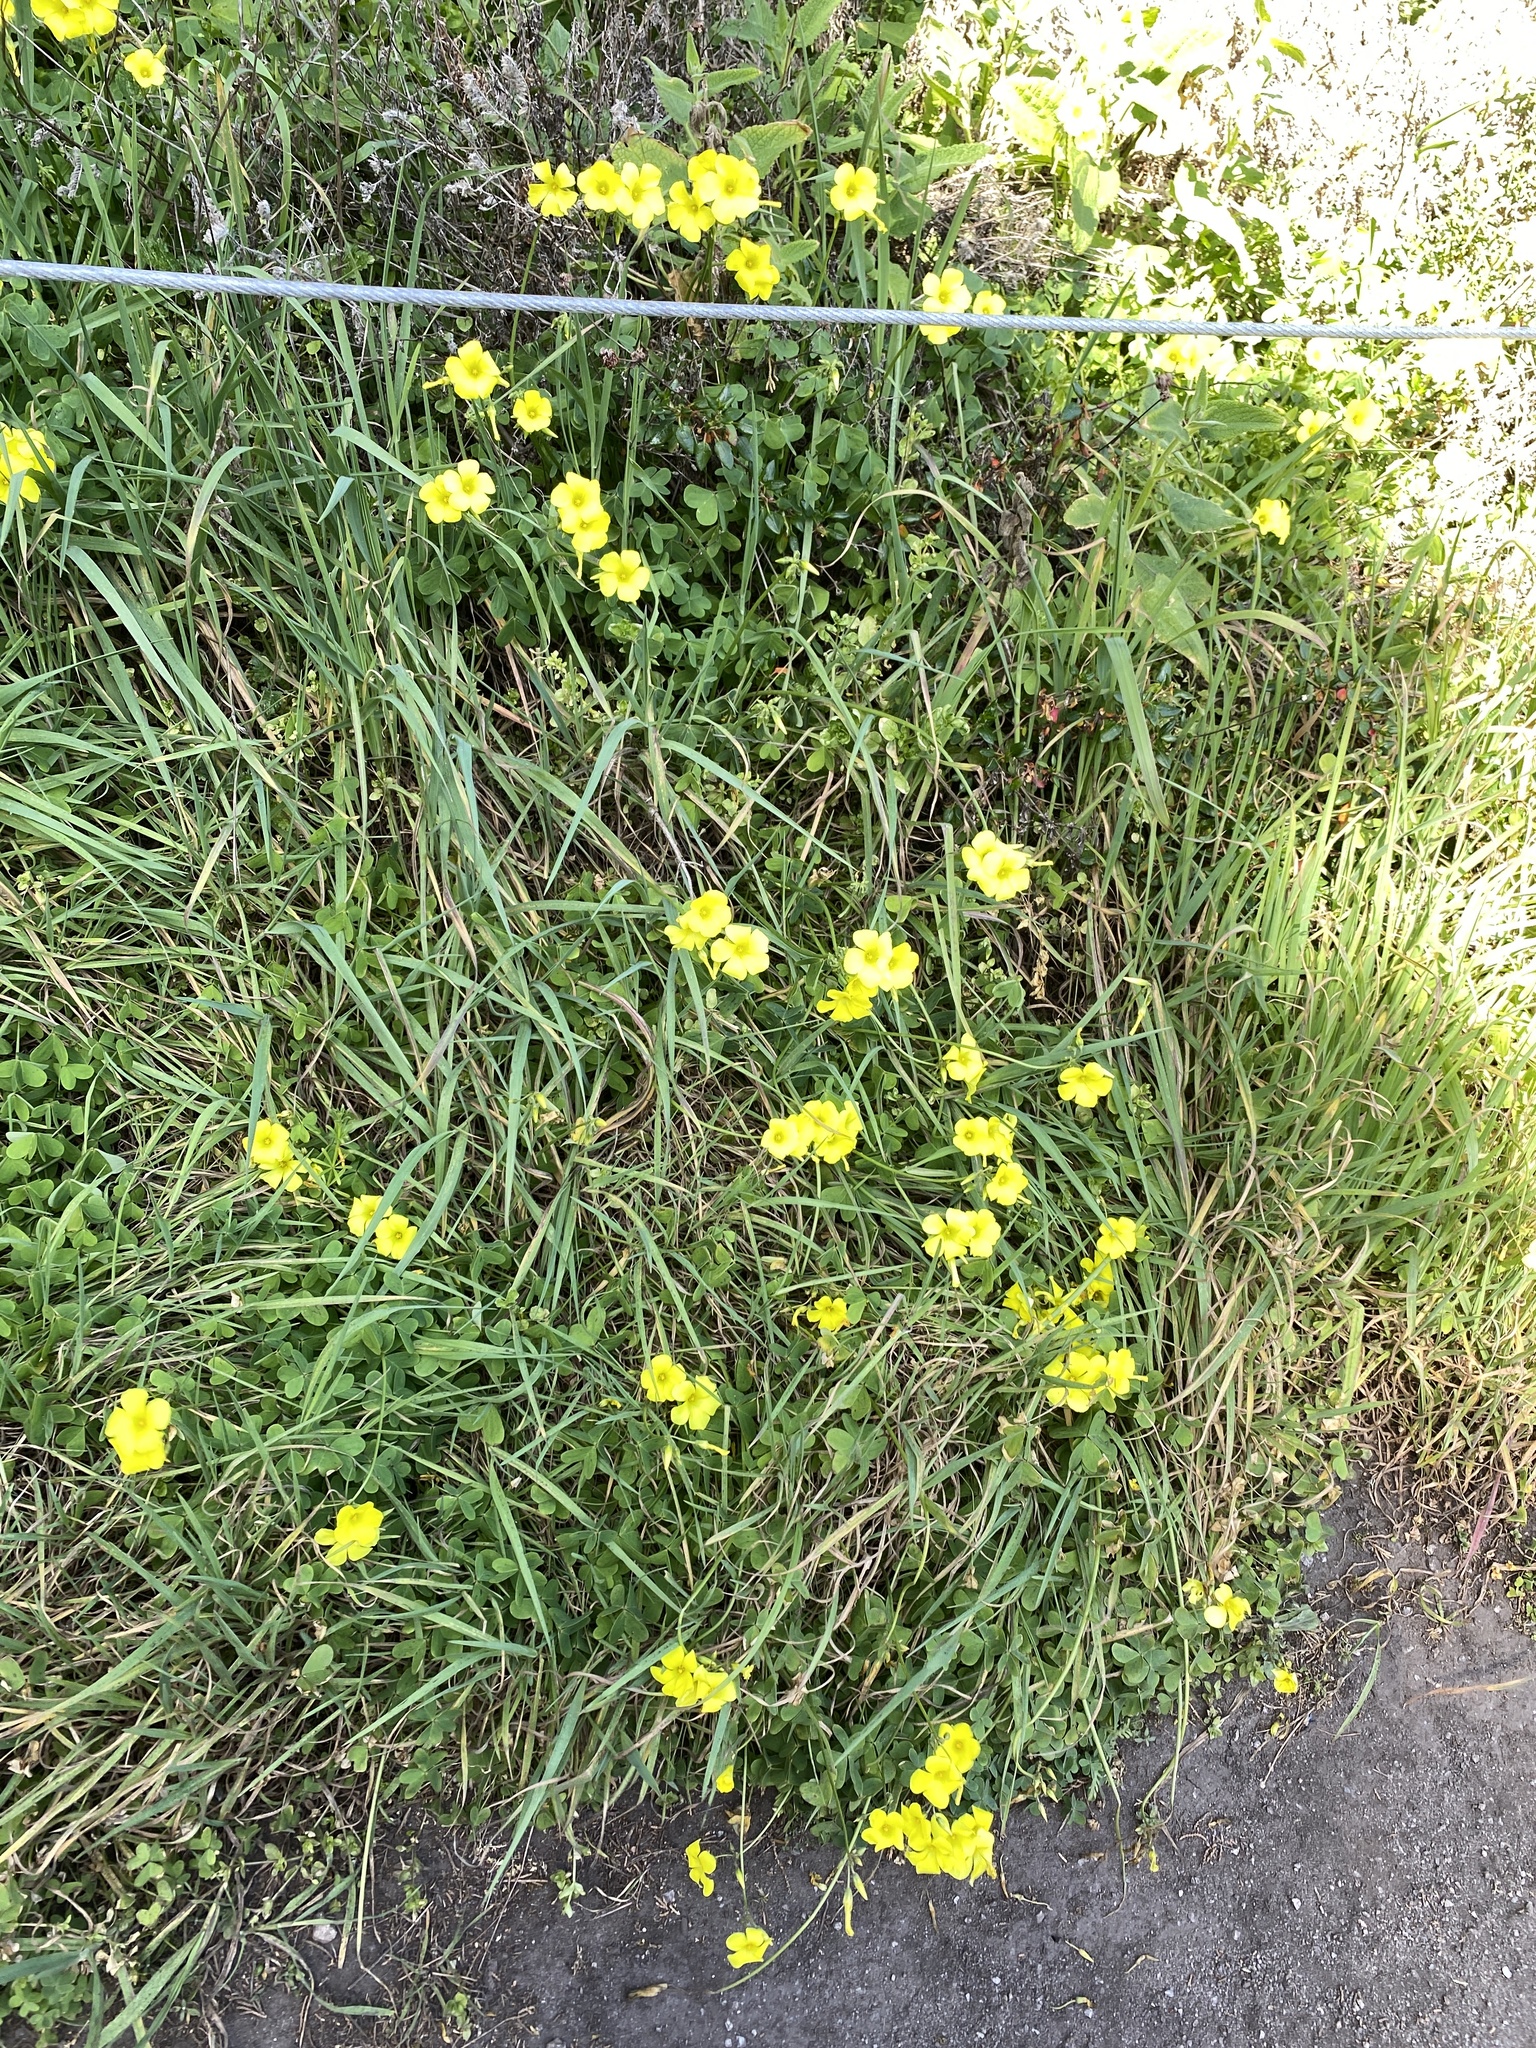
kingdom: Plantae
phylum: Tracheophyta
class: Magnoliopsida
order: Oxalidales
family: Oxalidaceae
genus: Oxalis
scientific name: Oxalis pes-caprae
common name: Bermuda-buttercup
